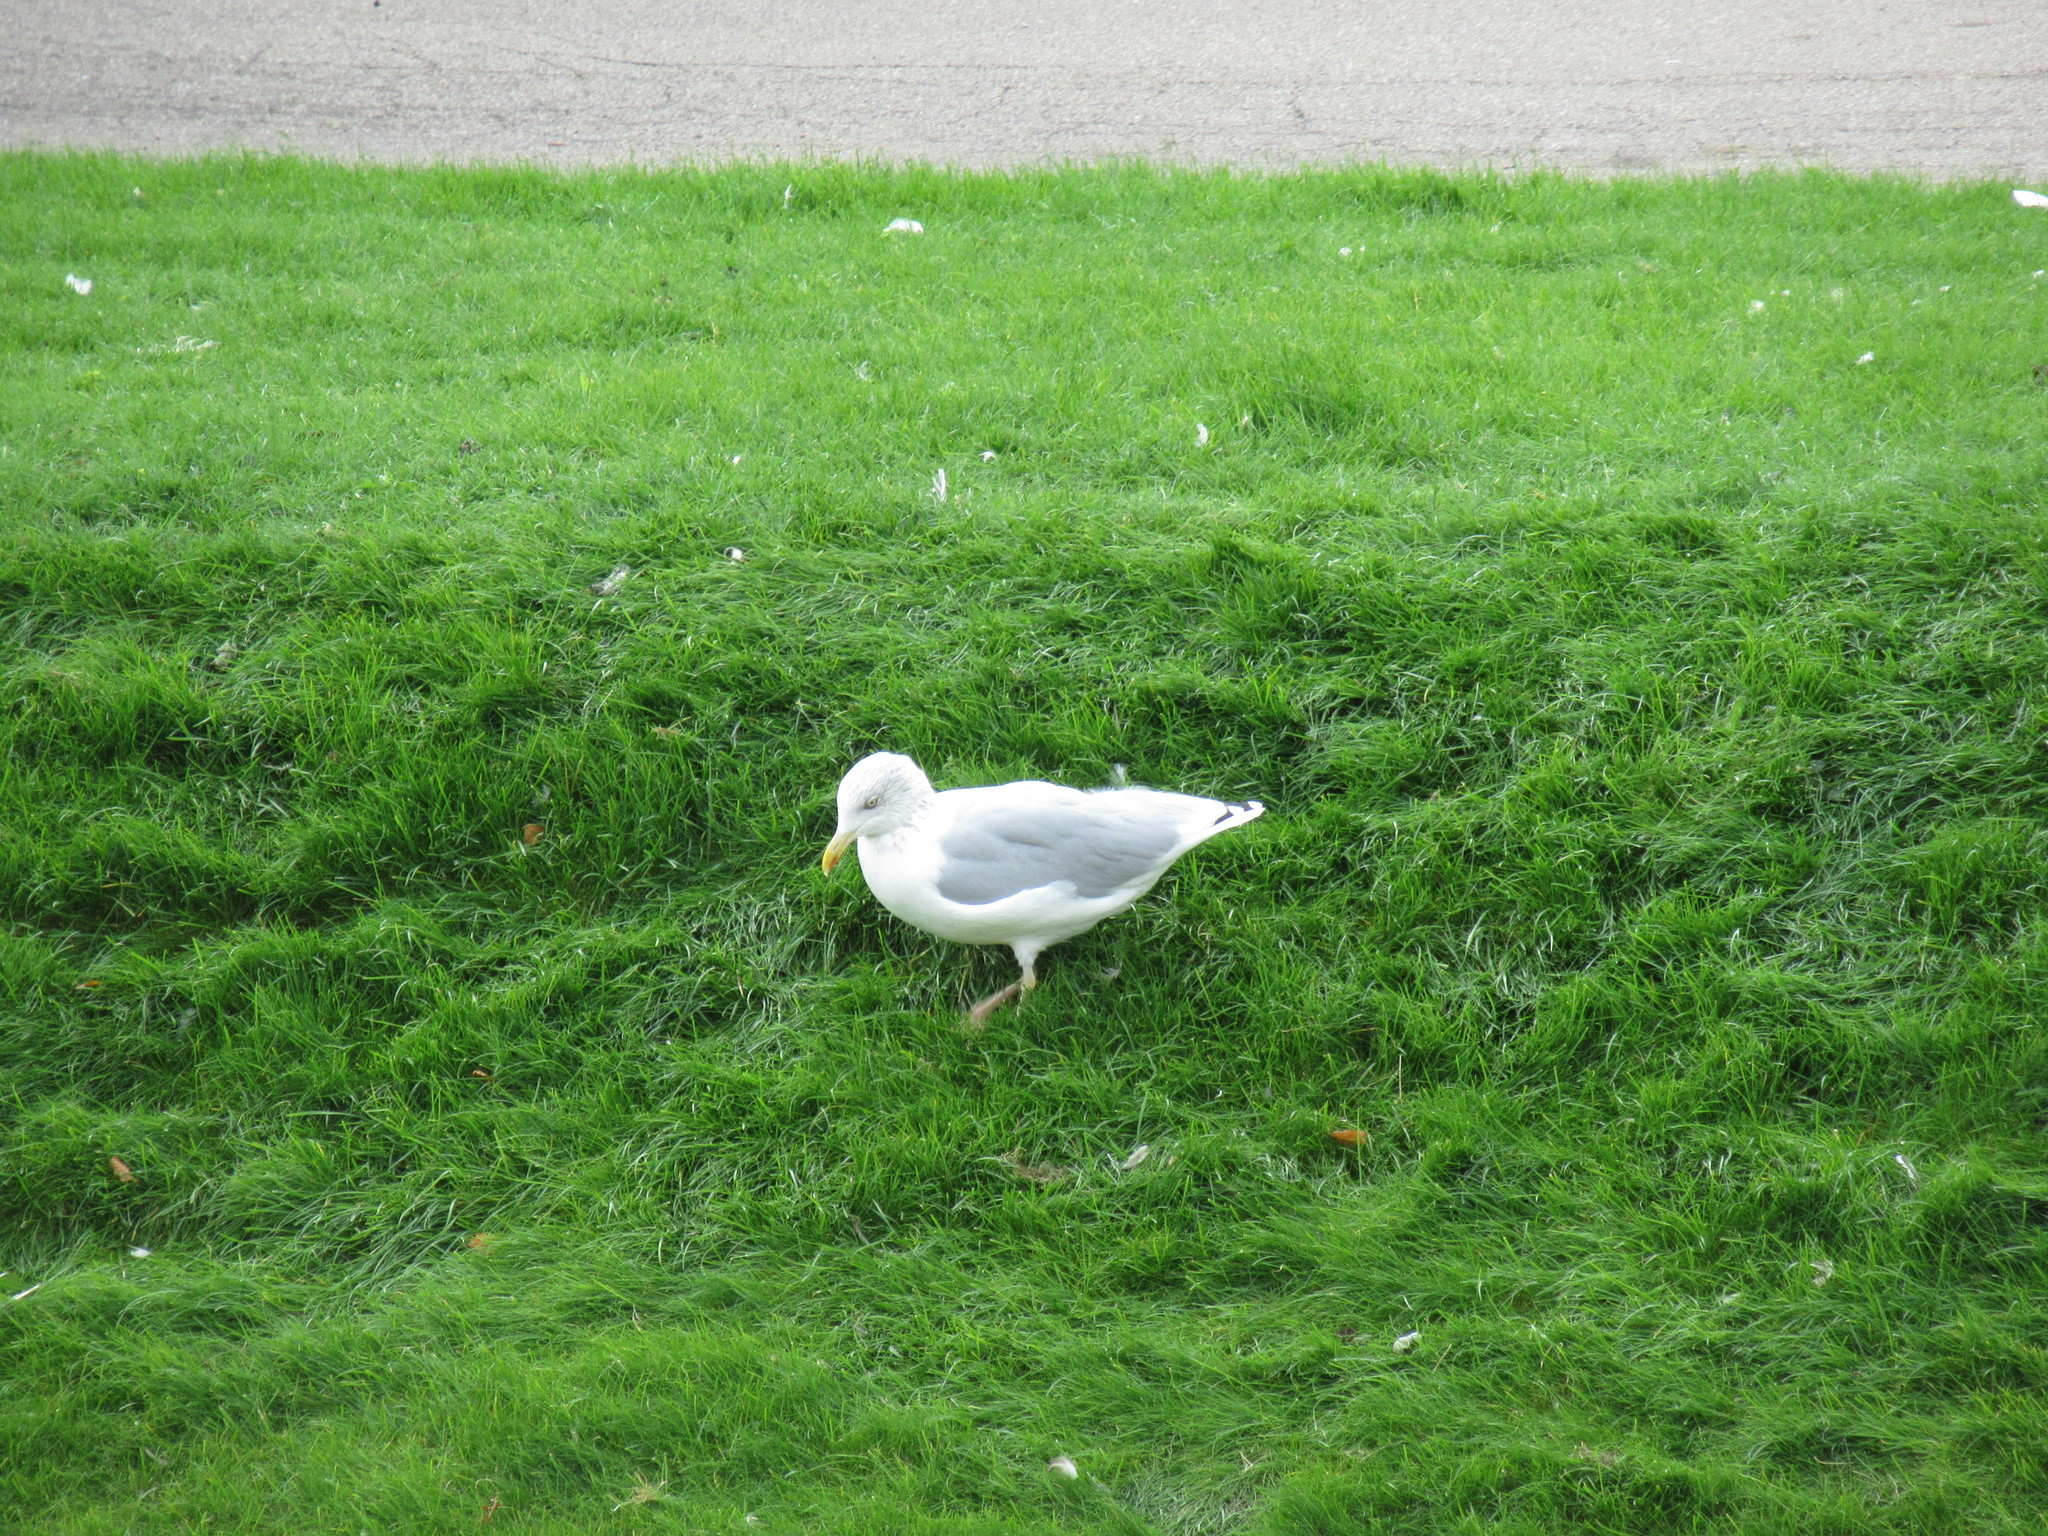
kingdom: Animalia
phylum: Chordata
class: Aves
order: Charadriiformes
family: Laridae
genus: Larus
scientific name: Larus argentatus
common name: Herring gull
